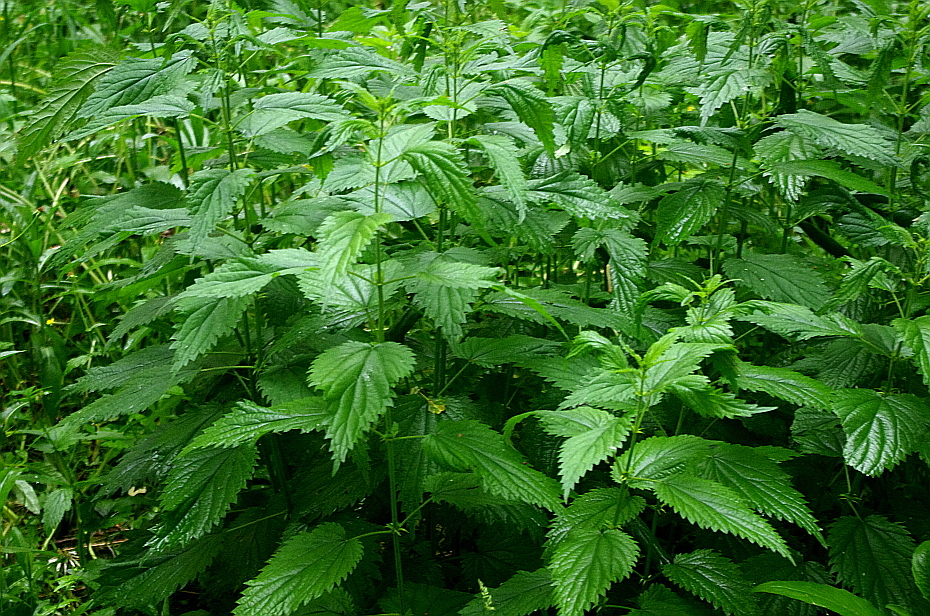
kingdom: Plantae
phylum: Tracheophyta
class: Magnoliopsida
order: Rosales
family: Urticaceae
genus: Urtica
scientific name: Urtica dioica
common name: Common nettle
